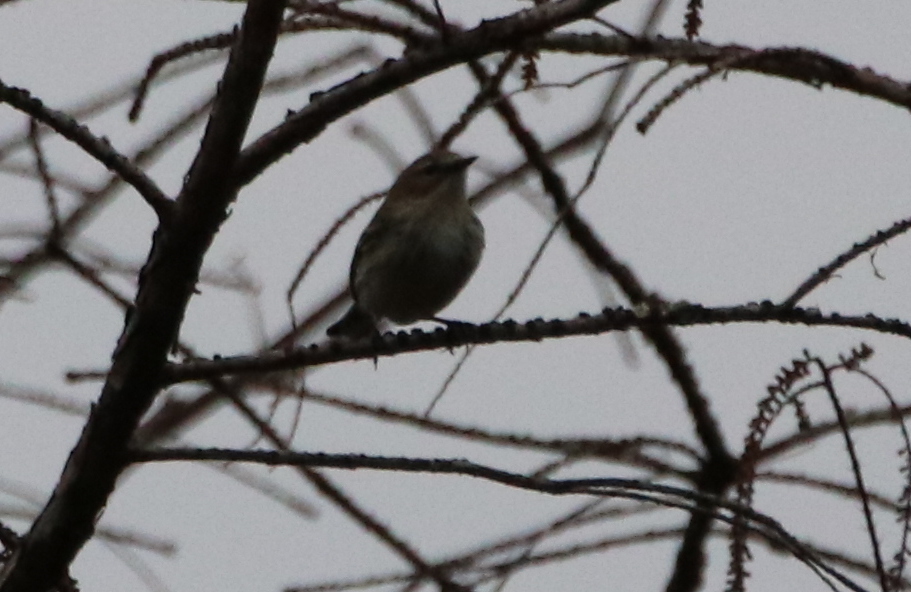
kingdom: Animalia
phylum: Chordata
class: Aves
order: Passeriformes
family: Parulidae
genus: Setophaga
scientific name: Setophaga coronata
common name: Myrtle warbler
